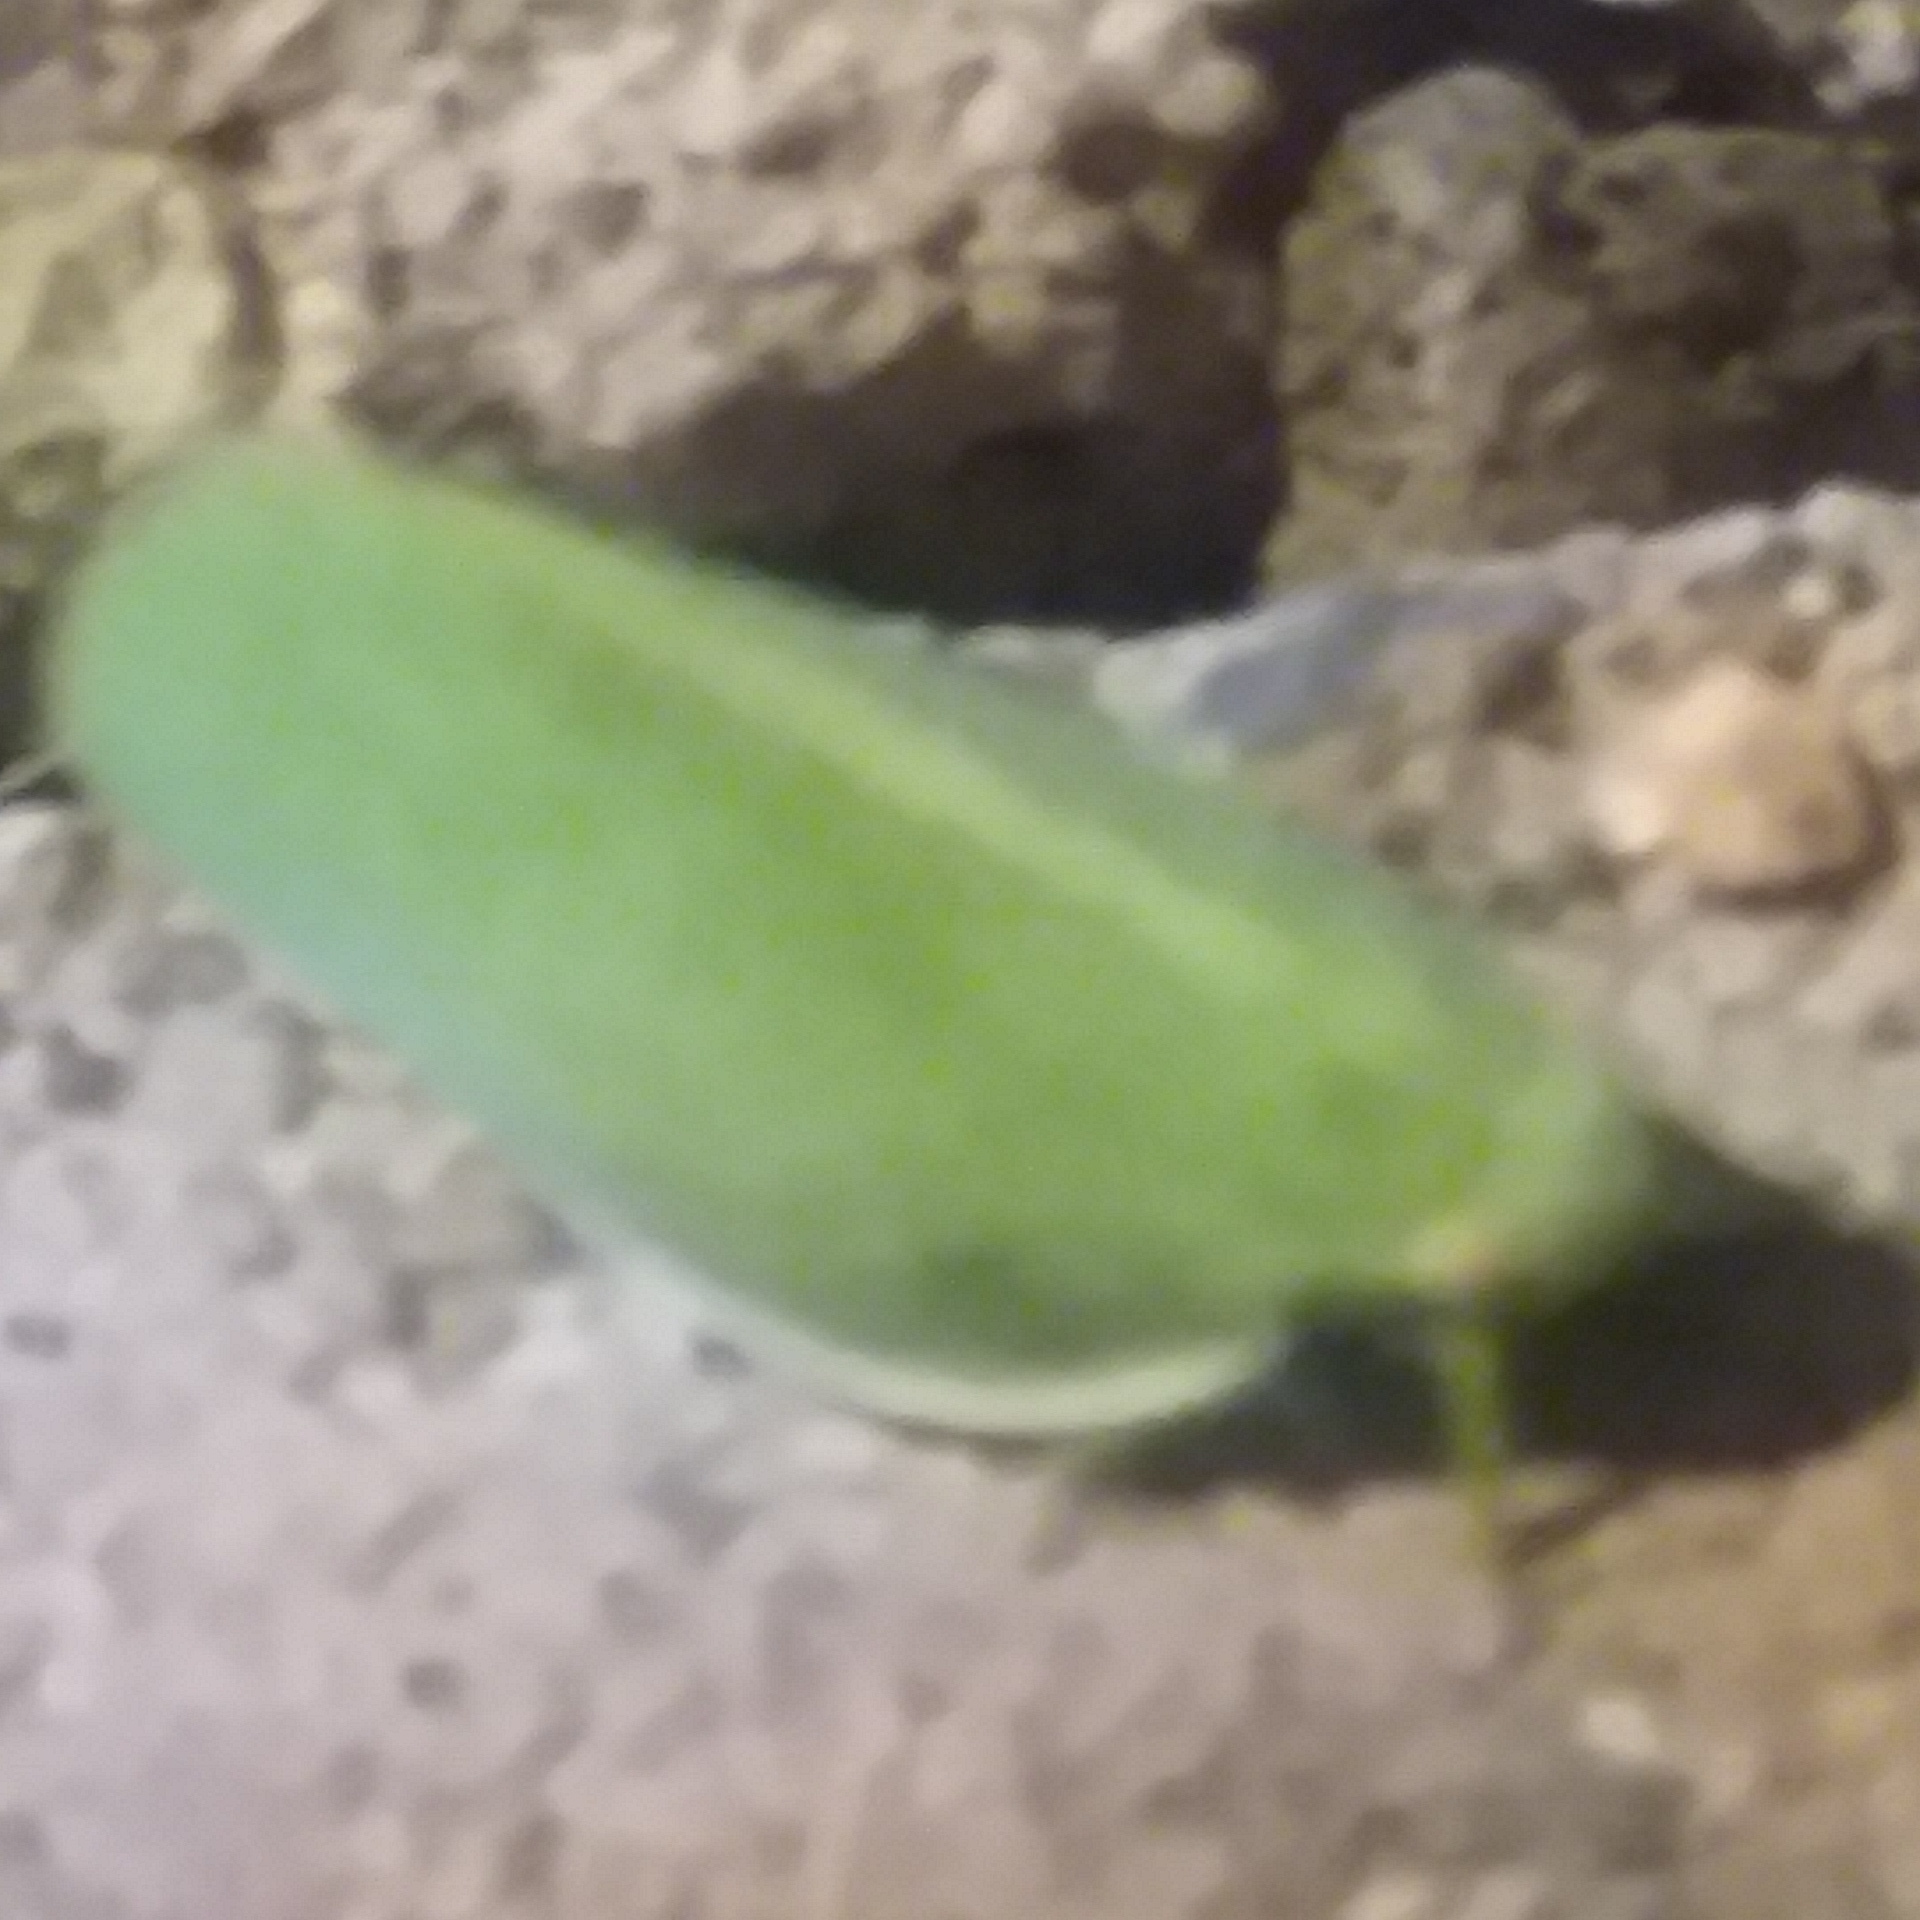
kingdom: Animalia
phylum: Arthropoda
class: Insecta
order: Hemiptera
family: Acanaloniidae
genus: Acanalonia
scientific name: Acanalonia clypeata
